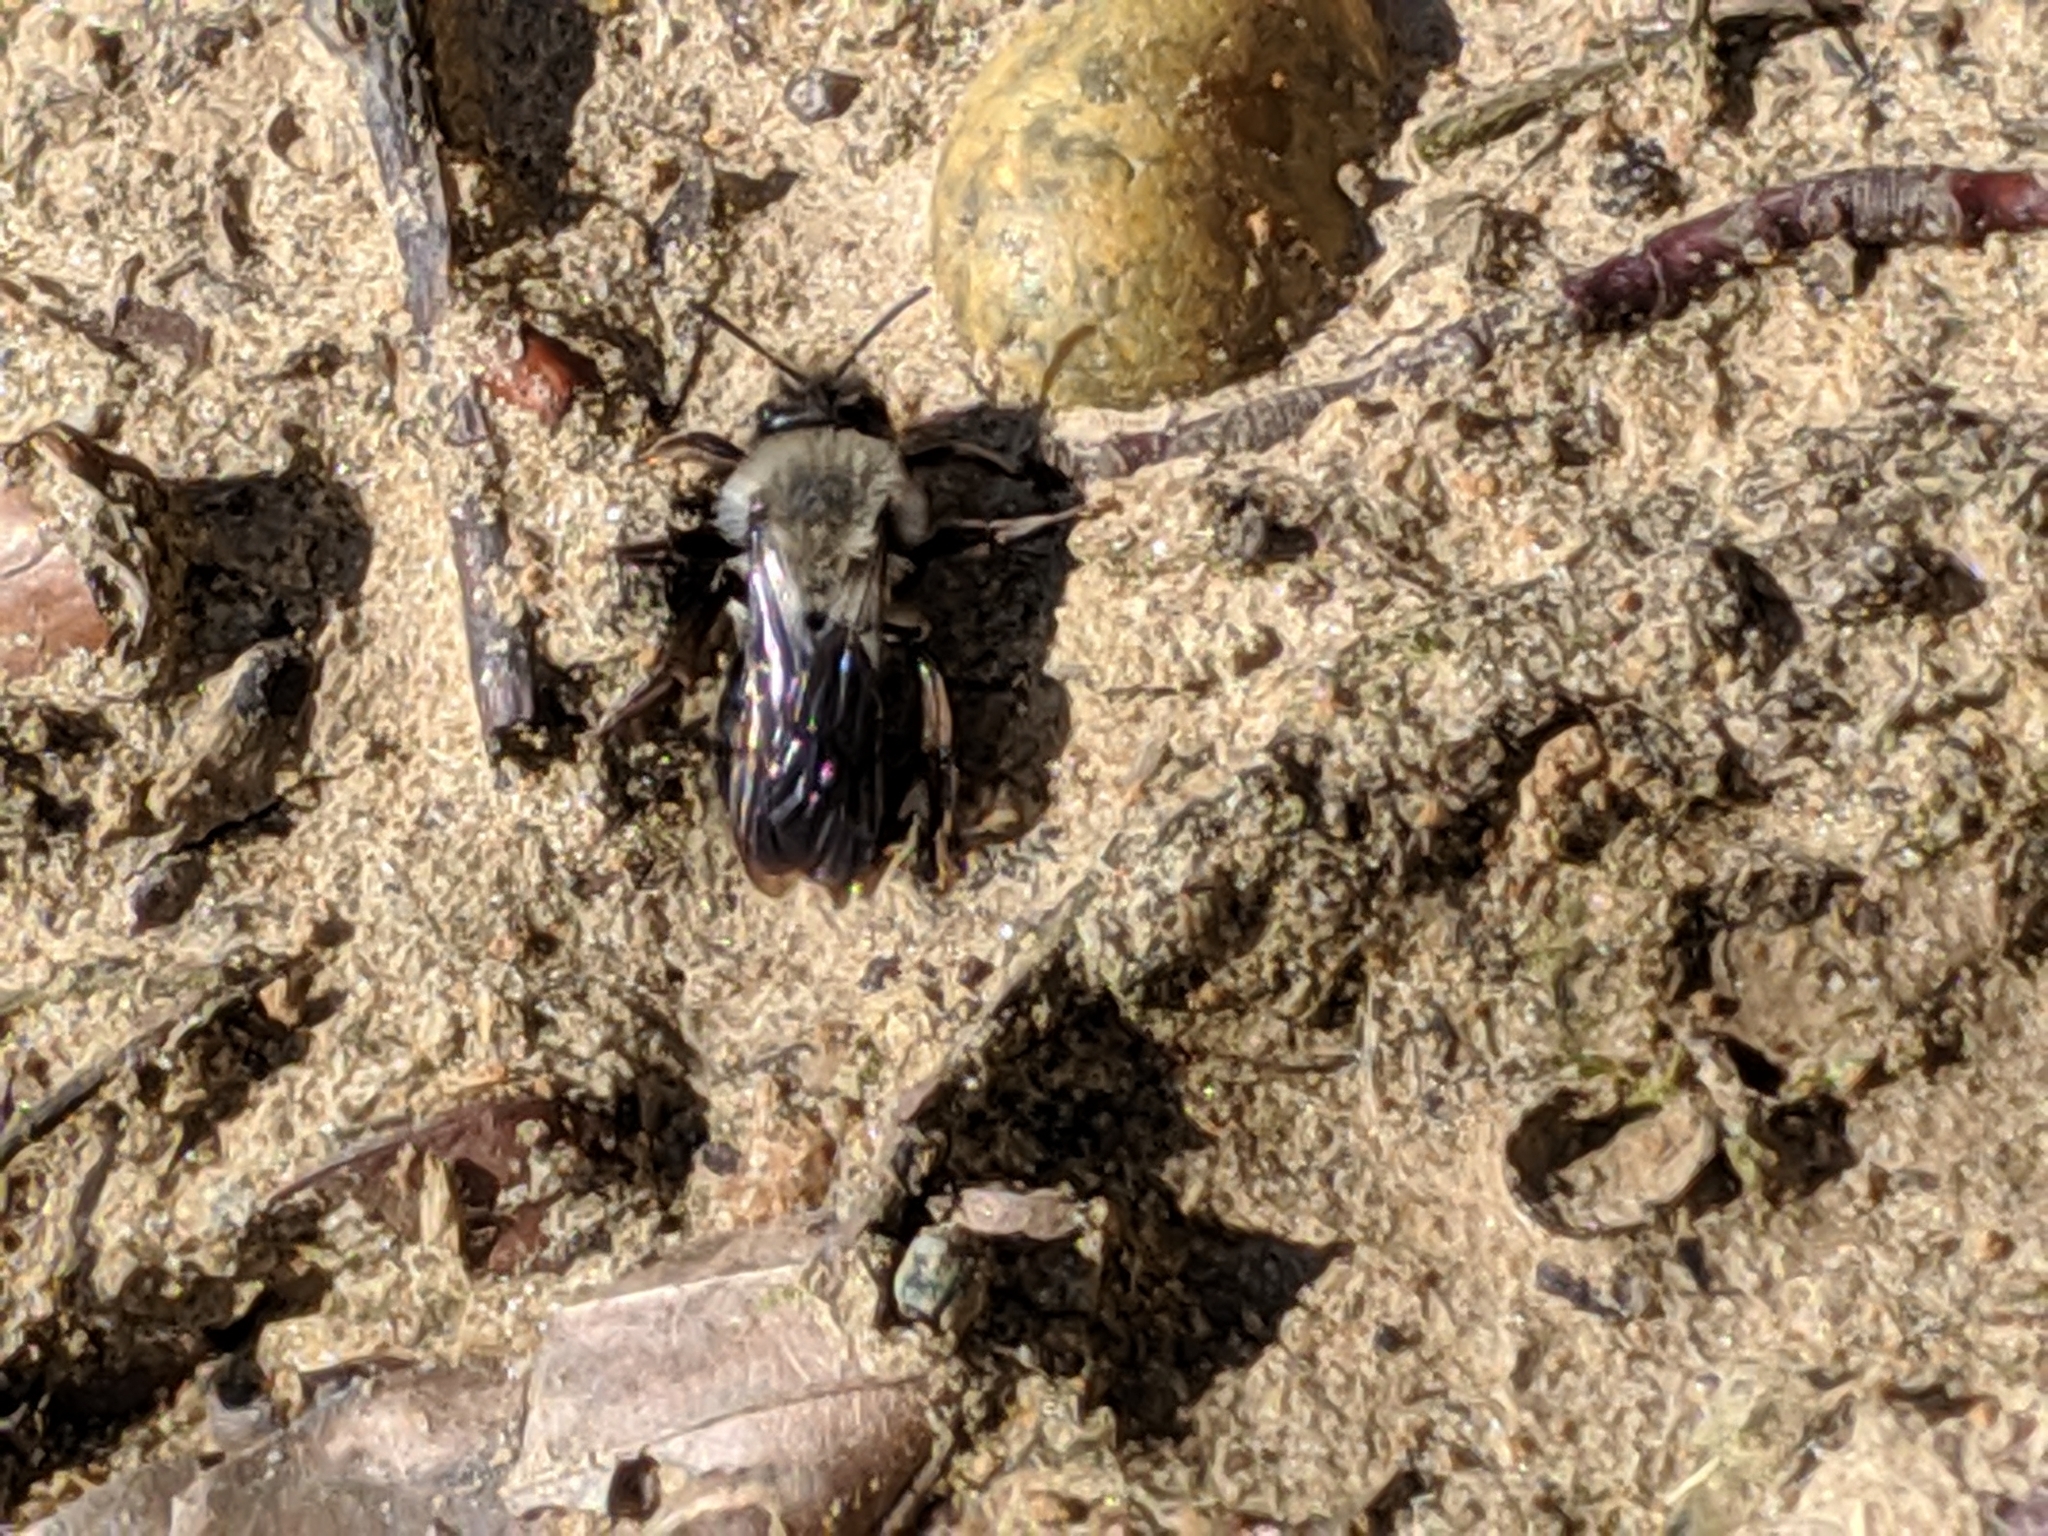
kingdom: Animalia
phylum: Arthropoda
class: Insecta
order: Hymenoptera
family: Andrenidae
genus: Andrena
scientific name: Andrena vaga
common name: Grey-backed mining bee
